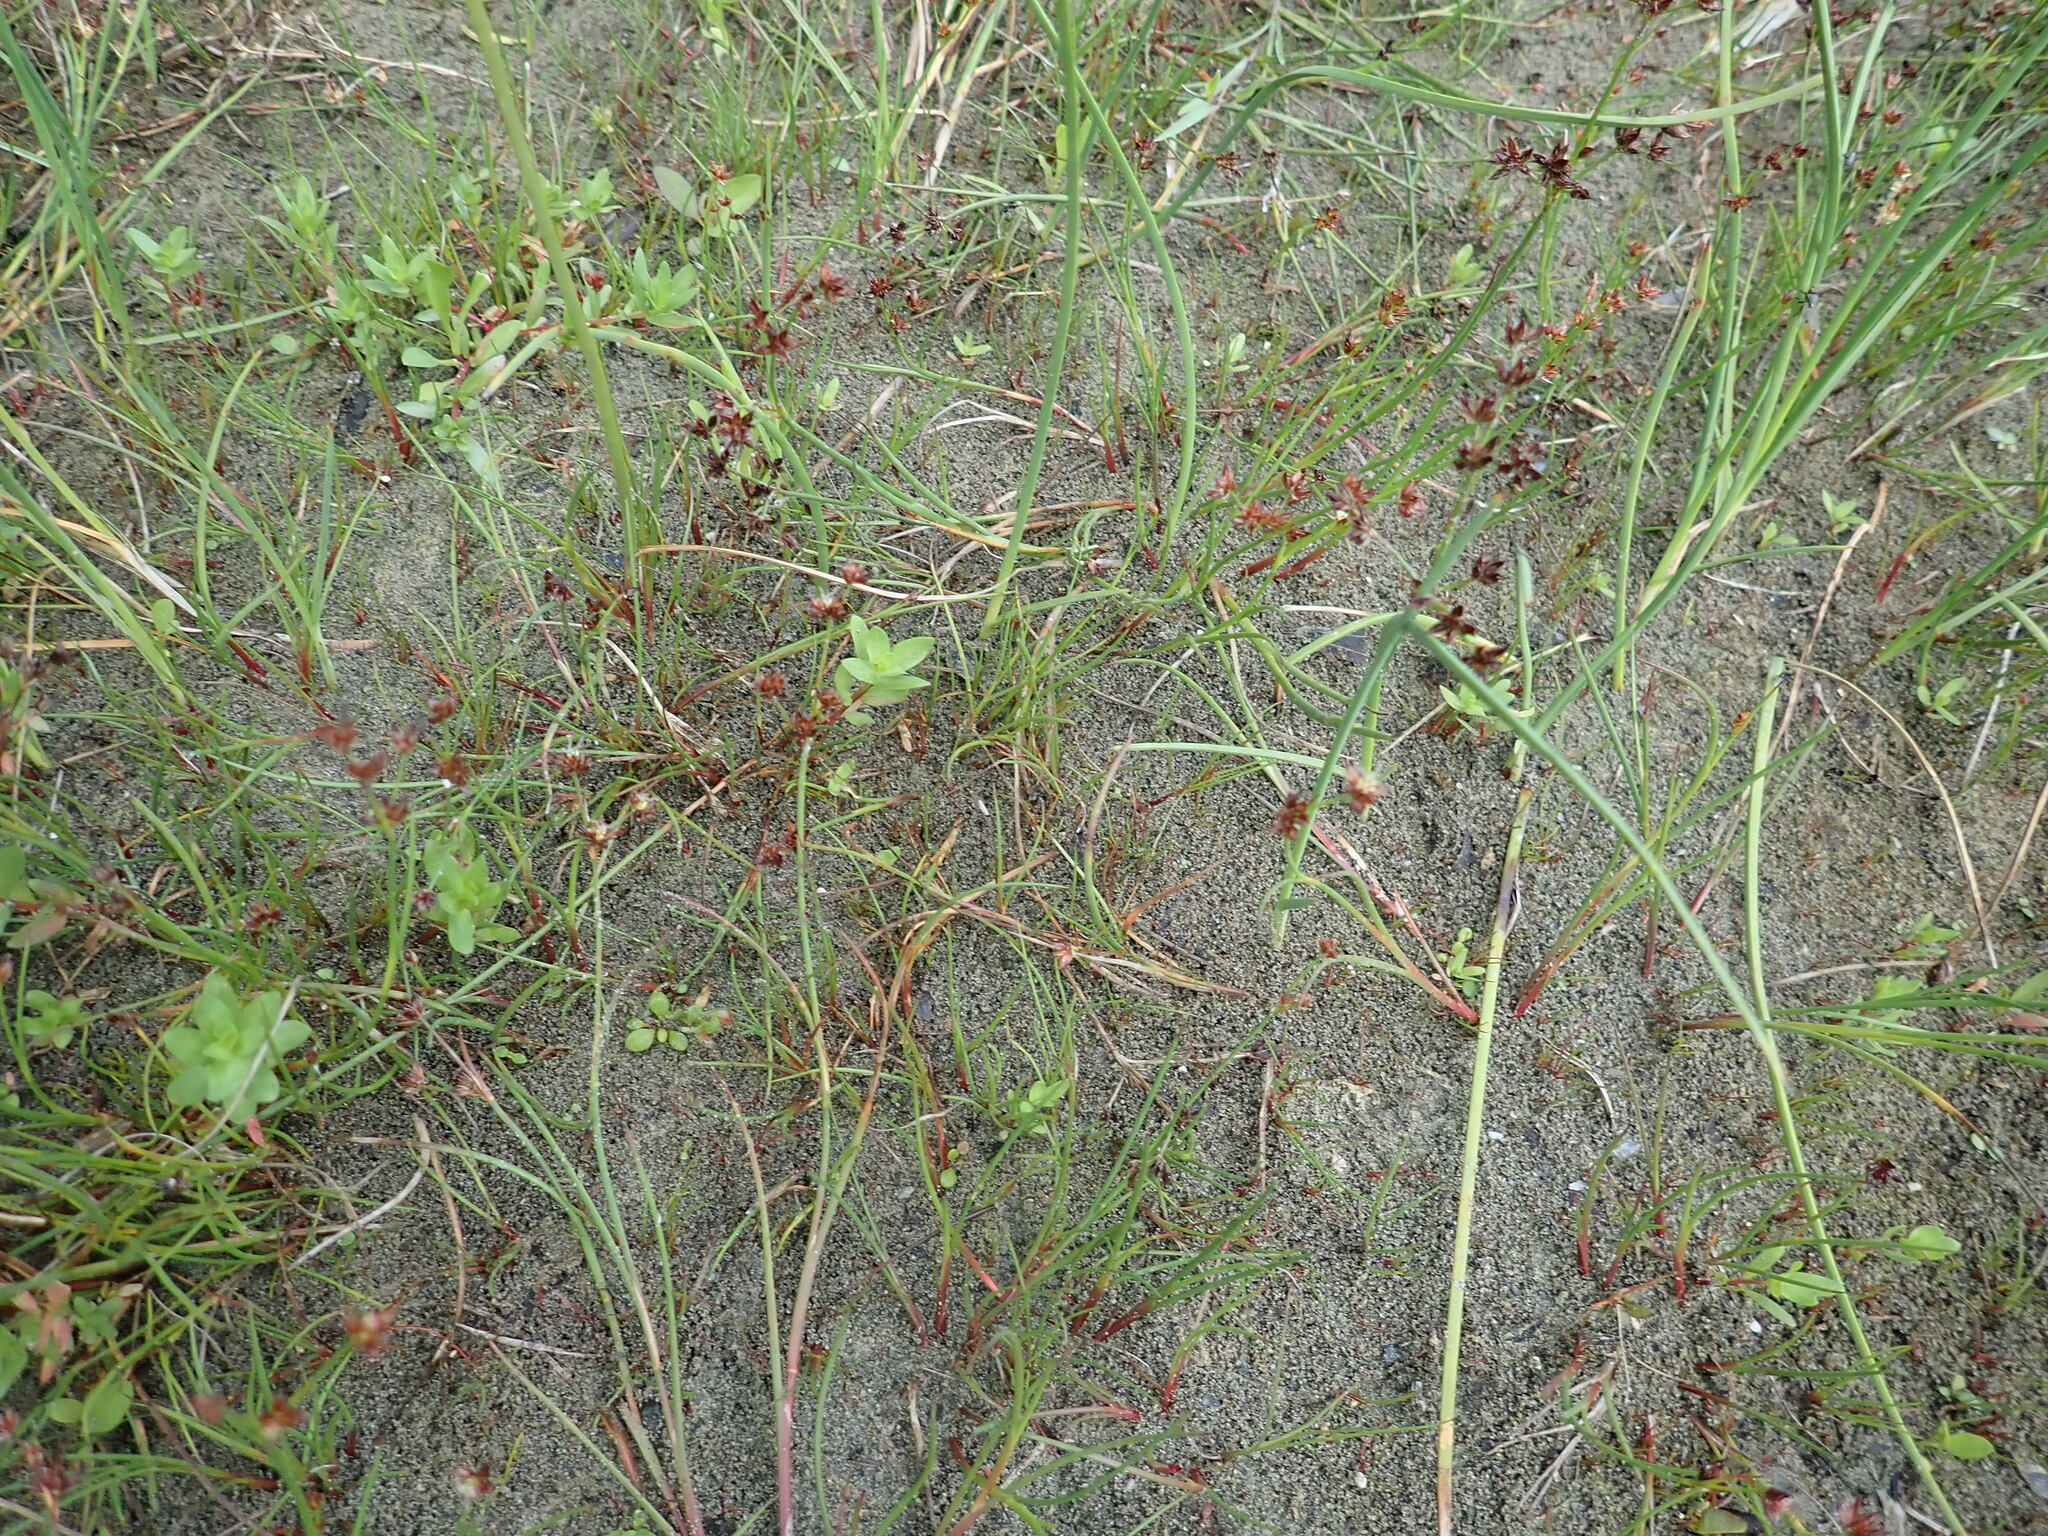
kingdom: Plantae
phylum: Tracheophyta
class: Liliopsida
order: Poales
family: Juncaceae
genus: Juncus
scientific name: Juncus articulatus
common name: Jointed rush
